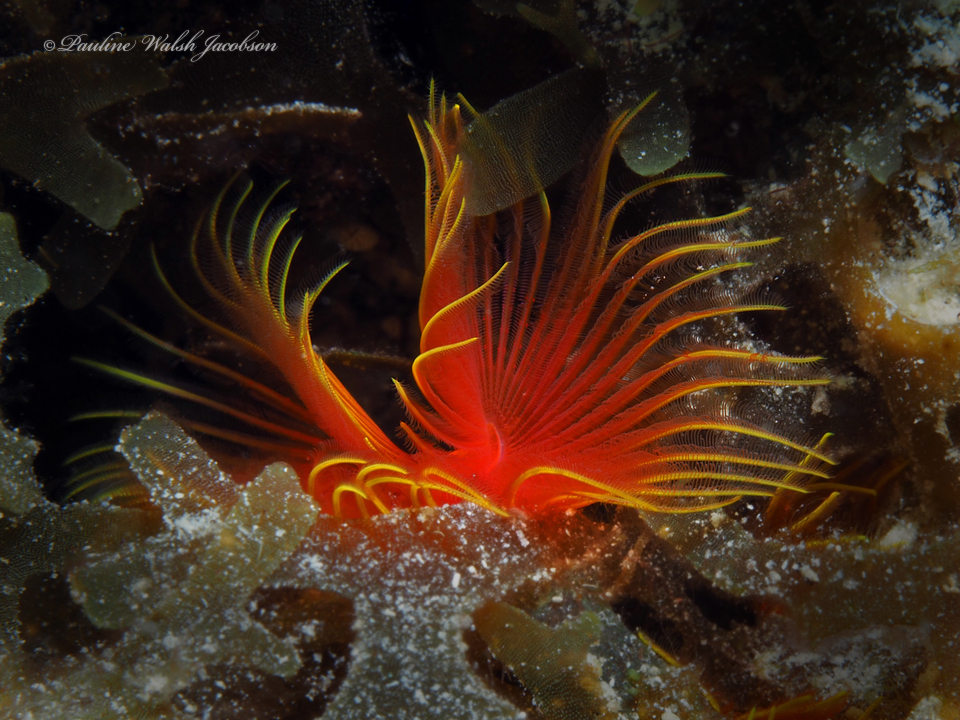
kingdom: Animalia
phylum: Annelida
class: Polychaeta
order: Sabellida
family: Serpulidae
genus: Pomatostegus
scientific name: Pomatostegus stellatus
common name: Star tubeworm
